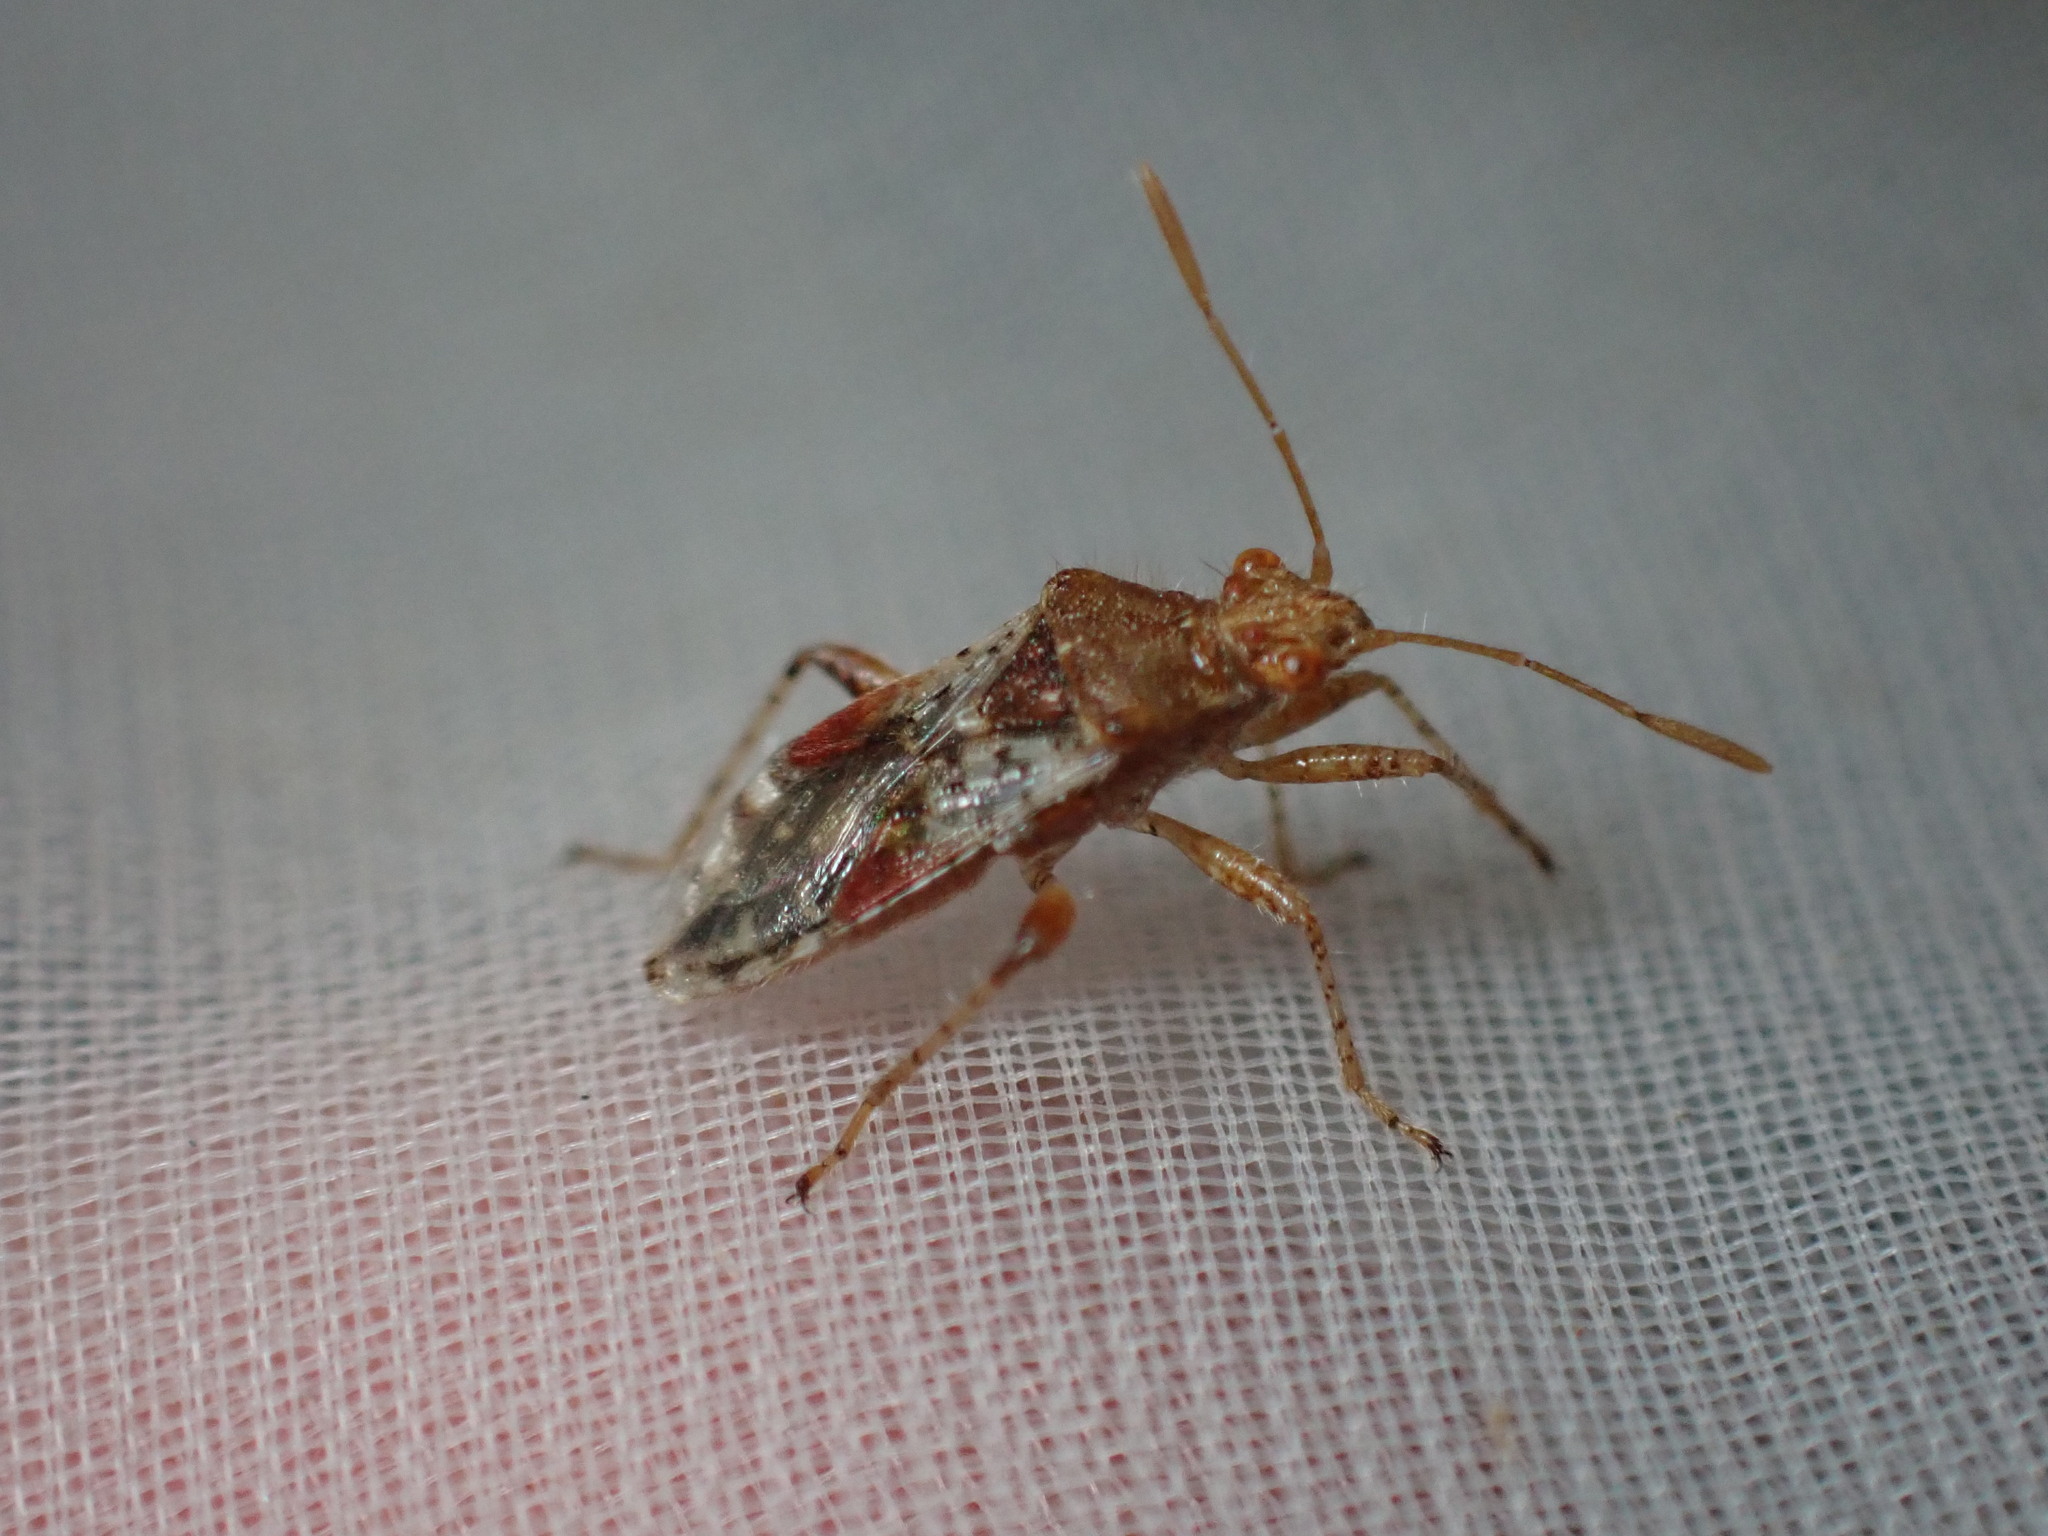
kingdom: Animalia
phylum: Arthropoda
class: Insecta
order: Hemiptera
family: Rhopalidae
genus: Rhopalus
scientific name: Rhopalus subrufus
